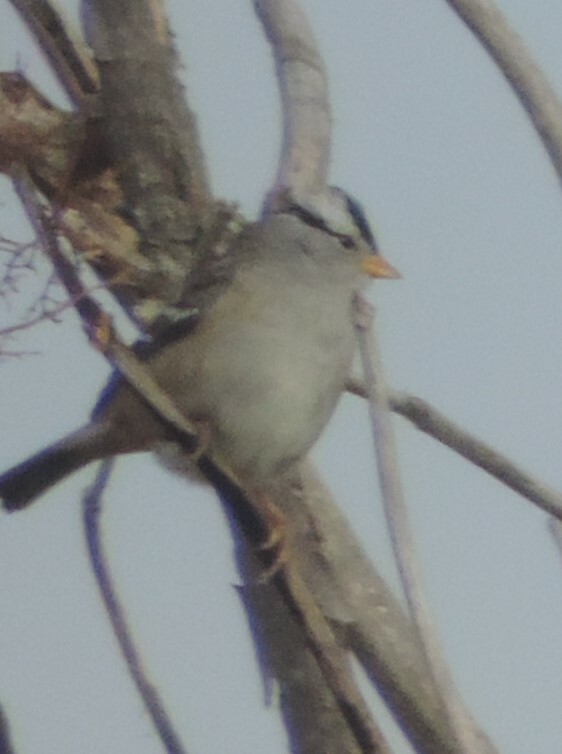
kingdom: Animalia
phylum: Chordata
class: Aves
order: Passeriformes
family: Passerellidae
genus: Zonotrichia
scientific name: Zonotrichia leucophrys
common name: White-crowned sparrow
